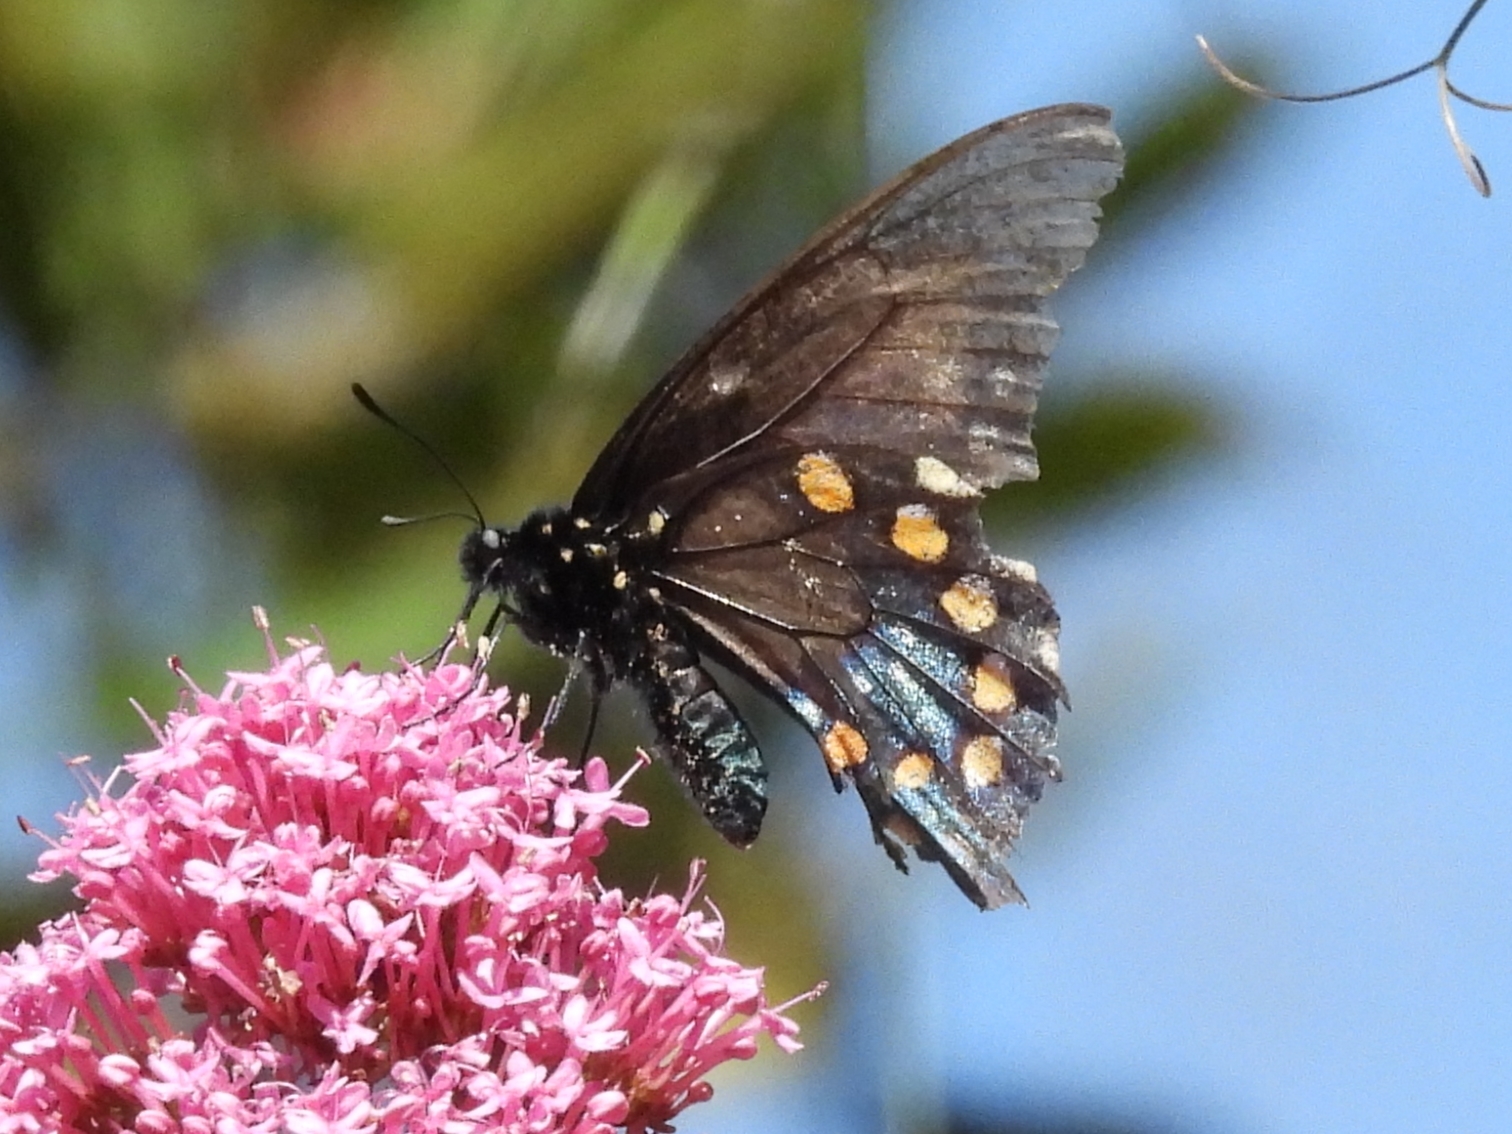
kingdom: Animalia
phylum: Arthropoda
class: Insecta
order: Lepidoptera
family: Papilionidae
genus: Battus
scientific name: Battus philenor
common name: Pipevine swallowtail
